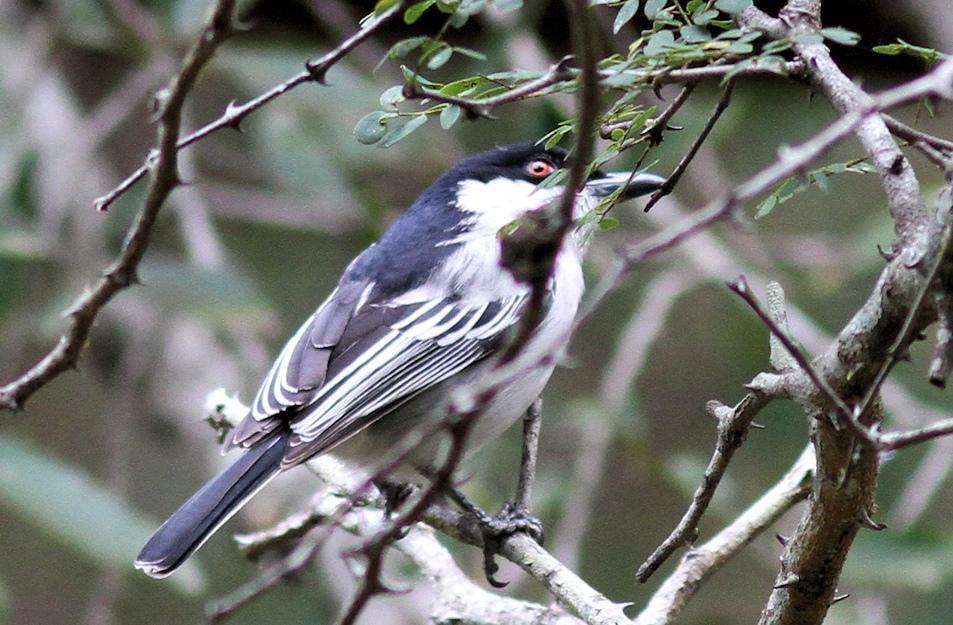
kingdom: Animalia
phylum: Chordata
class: Aves
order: Passeriformes
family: Malaconotidae
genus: Dryoscopus
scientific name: Dryoscopus cubla
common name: Black-backed puffback
